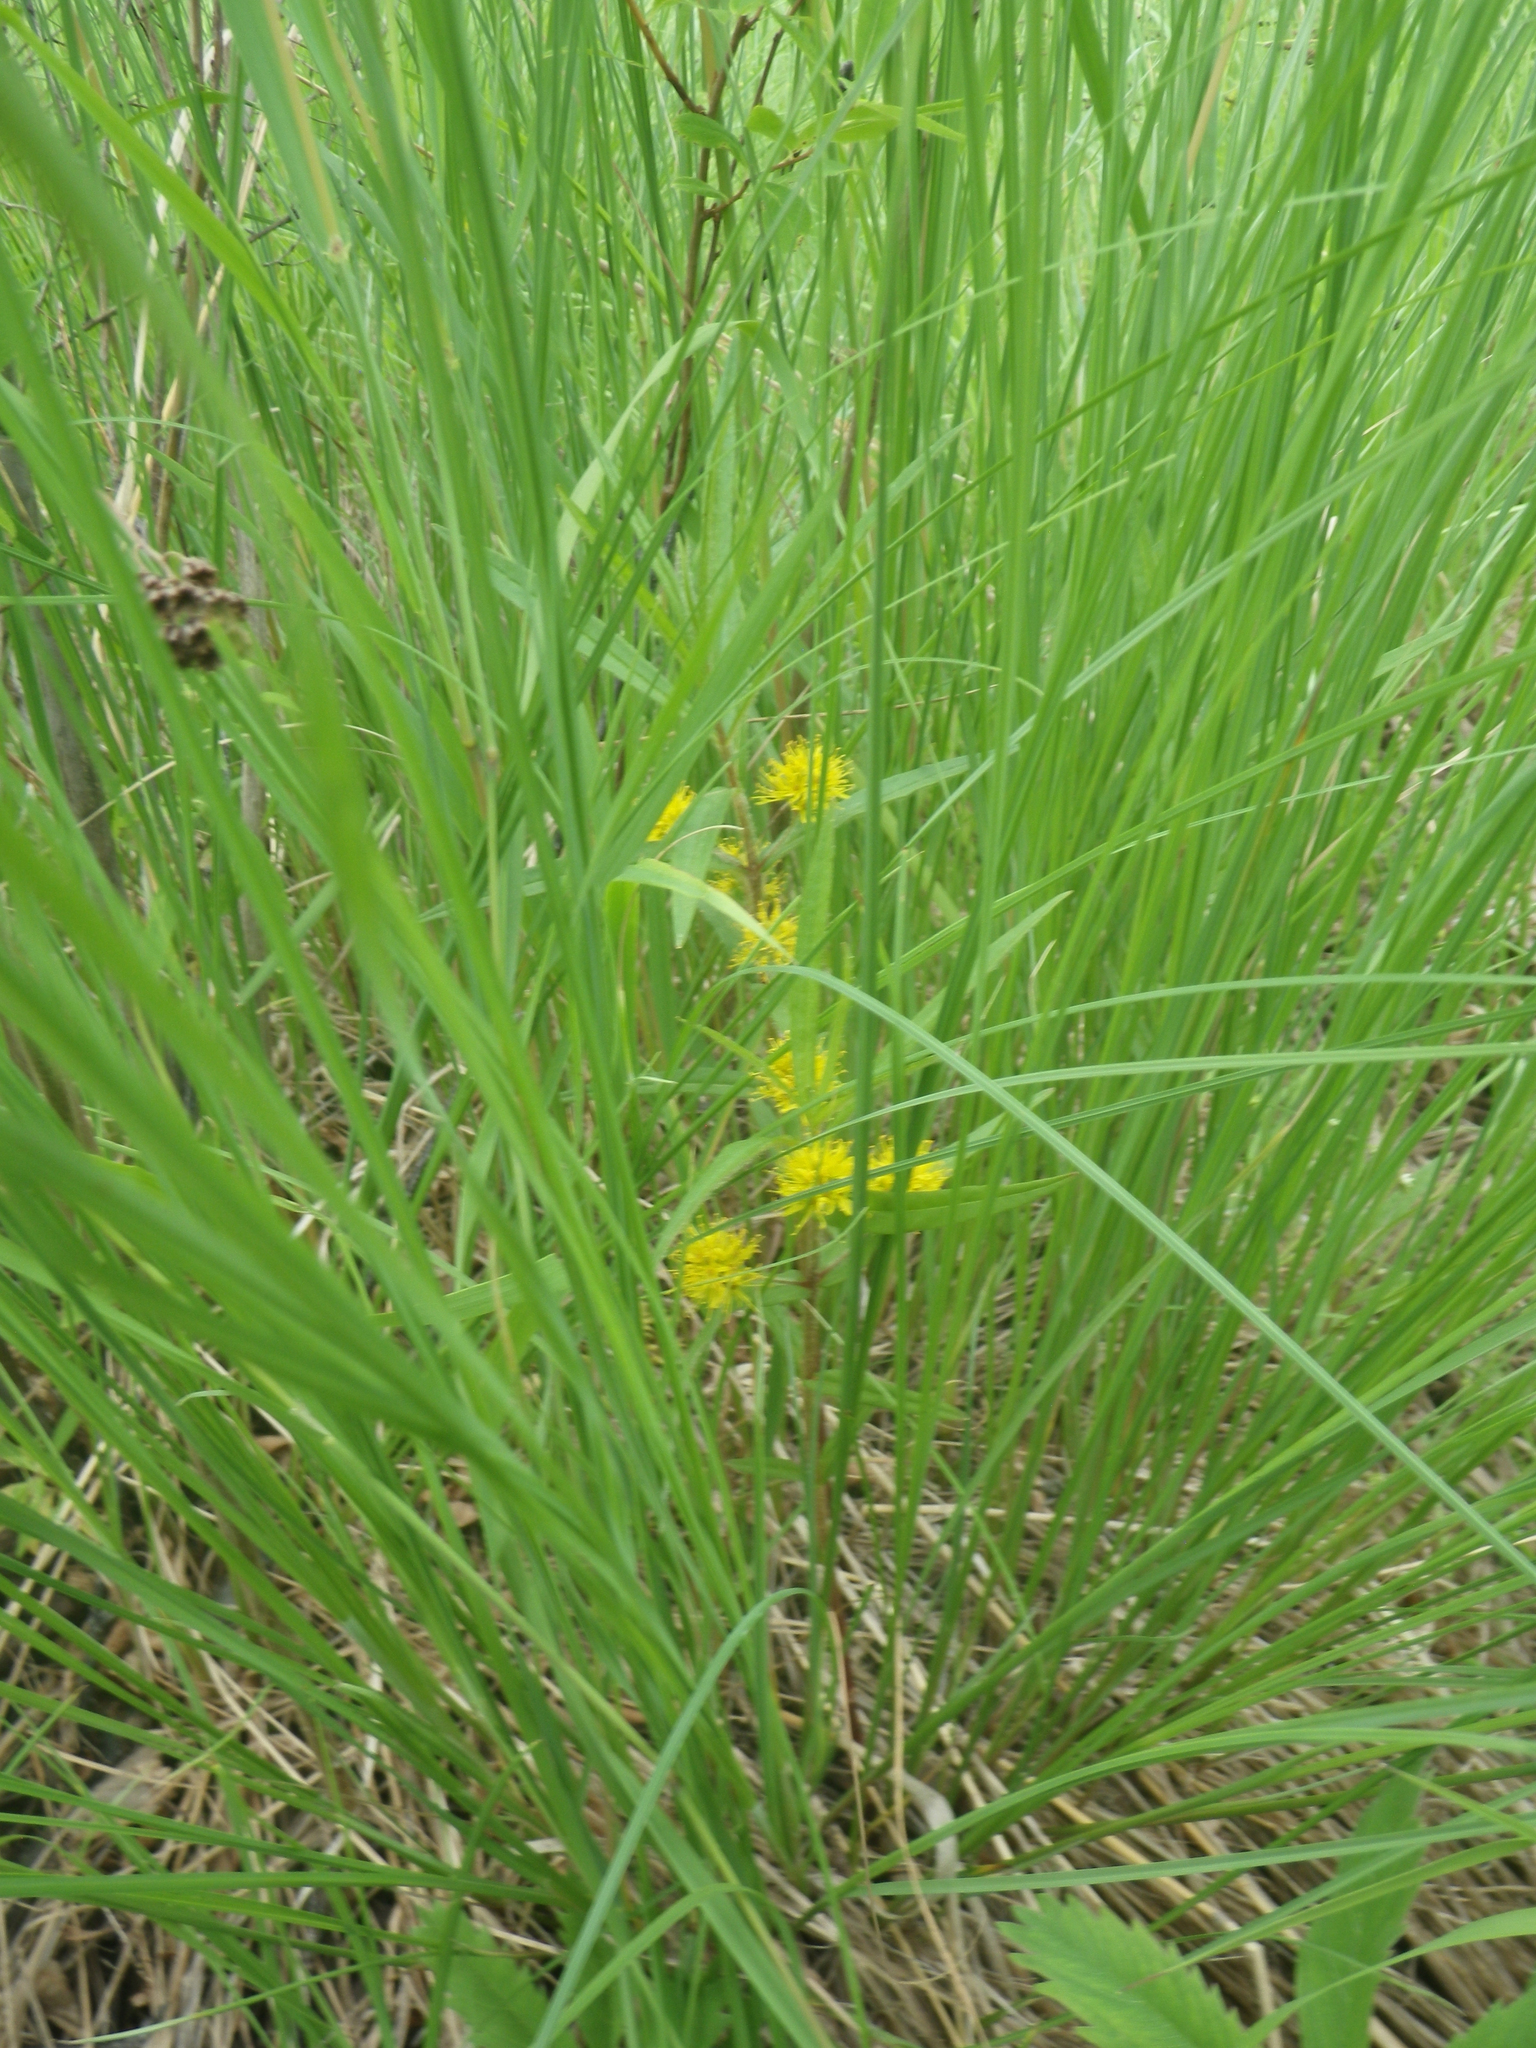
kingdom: Plantae
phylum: Tracheophyta
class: Magnoliopsida
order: Ericales
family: Primulaceae
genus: Lysimachia
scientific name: Lysimachia thyrsiflora
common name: Tufted loosestrife
